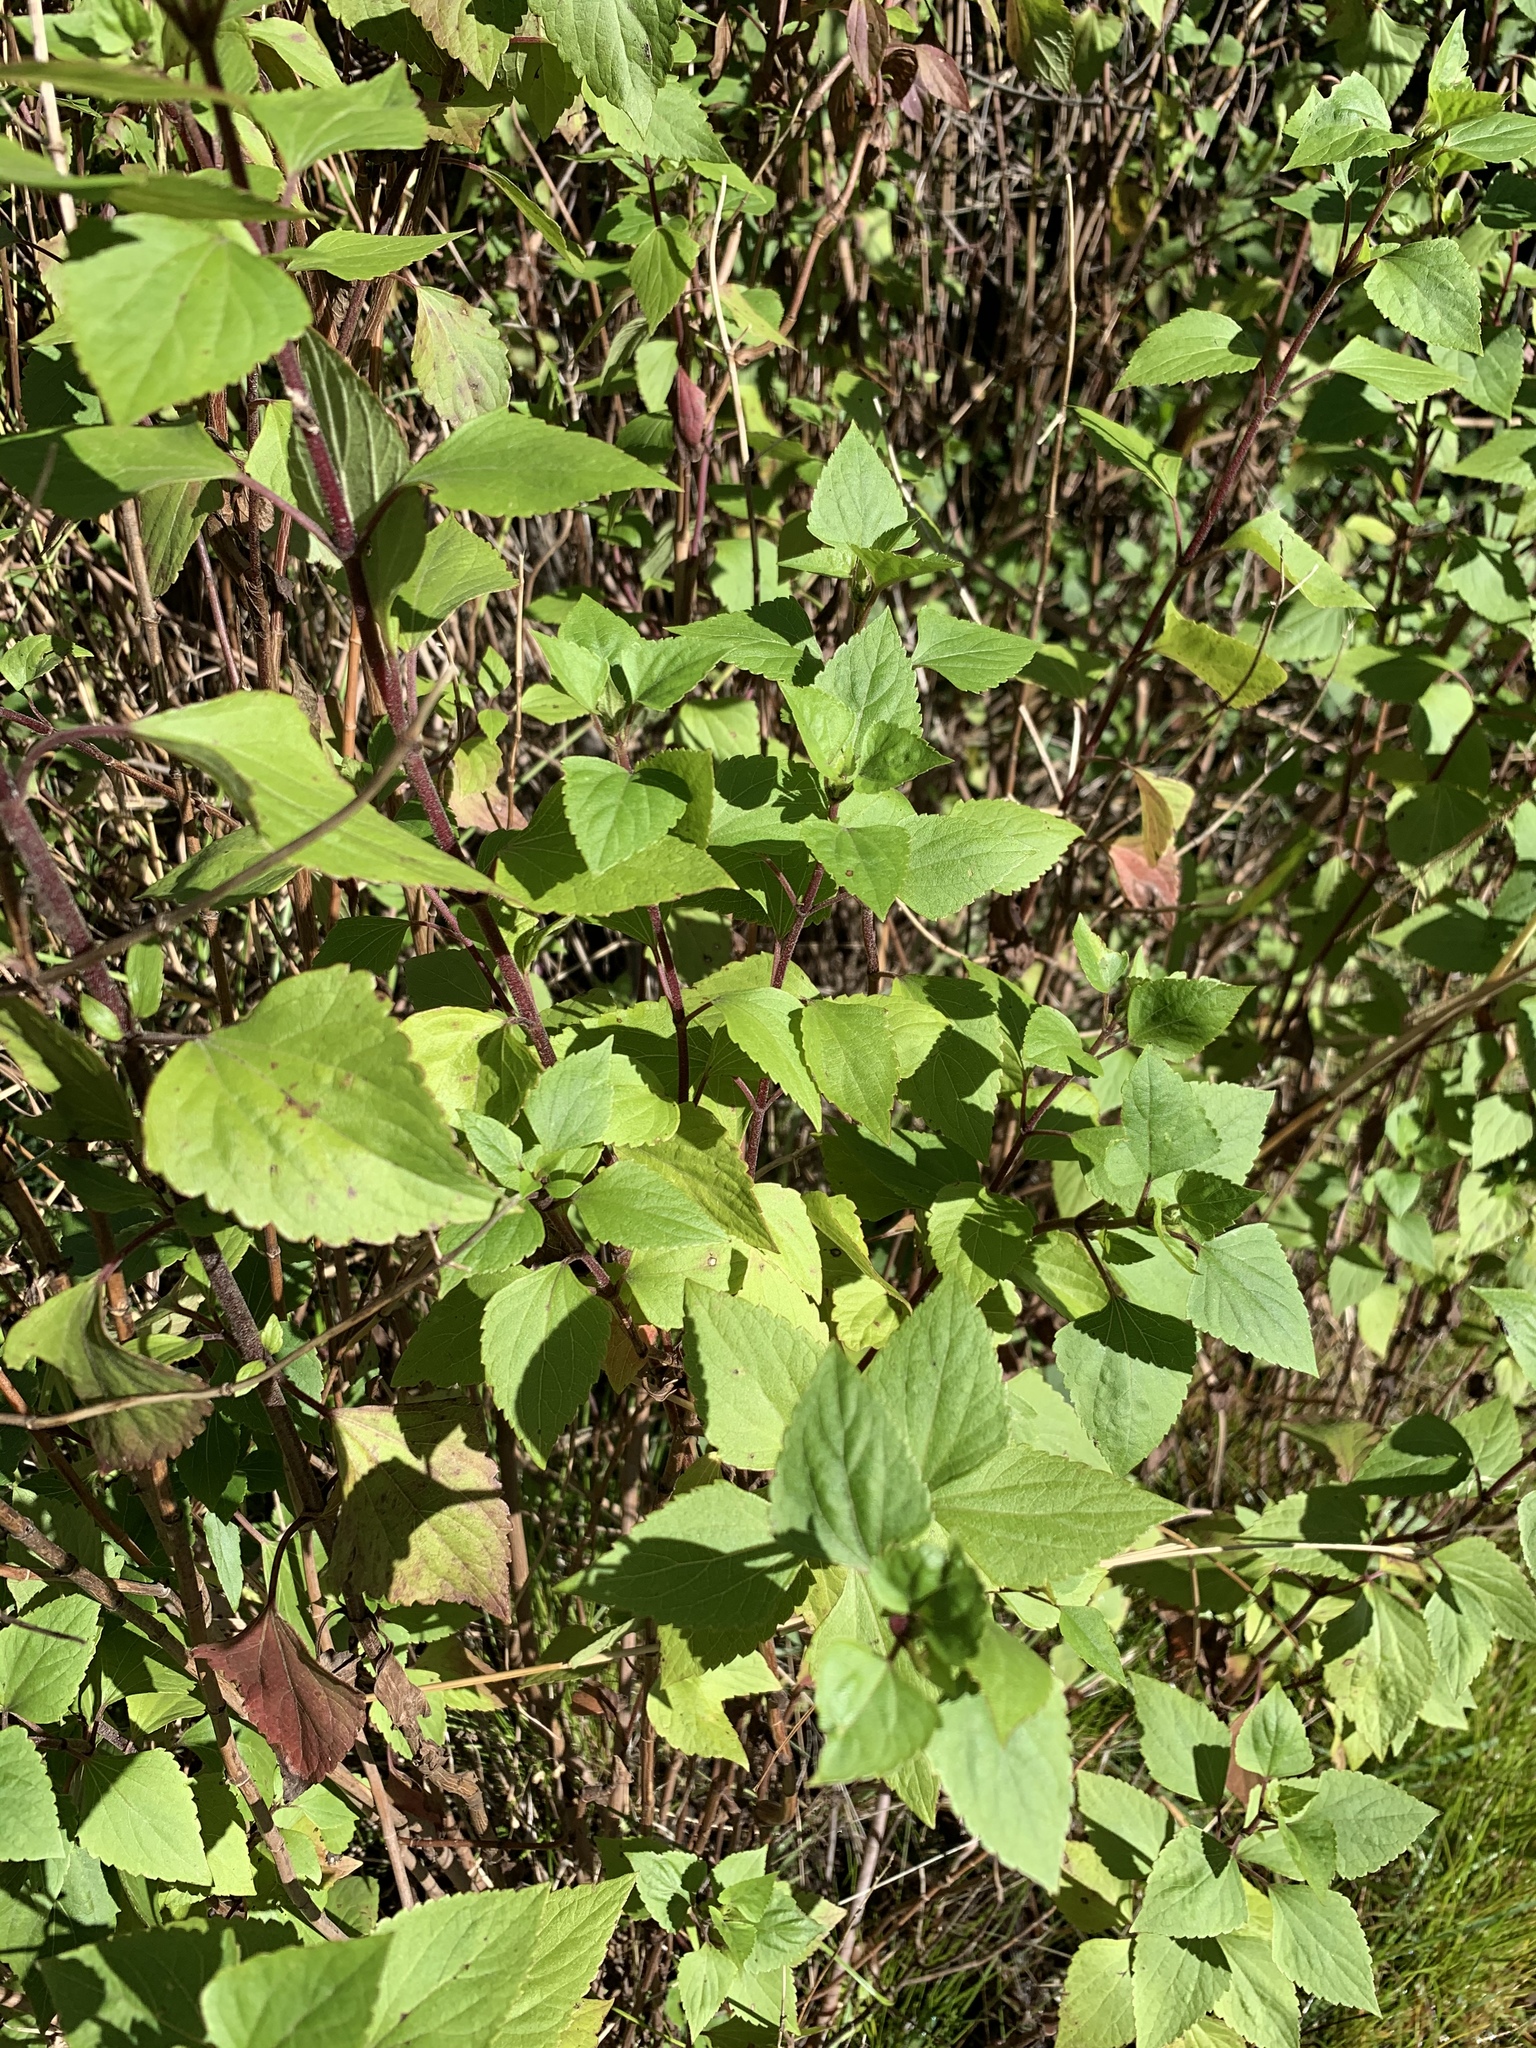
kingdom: Plantae
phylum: Tracheophyta
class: Magnoliopsida
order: Asterales
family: Asteraceae
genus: Ageratina
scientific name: Ageratina adenophora
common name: Sticky snakeroot
